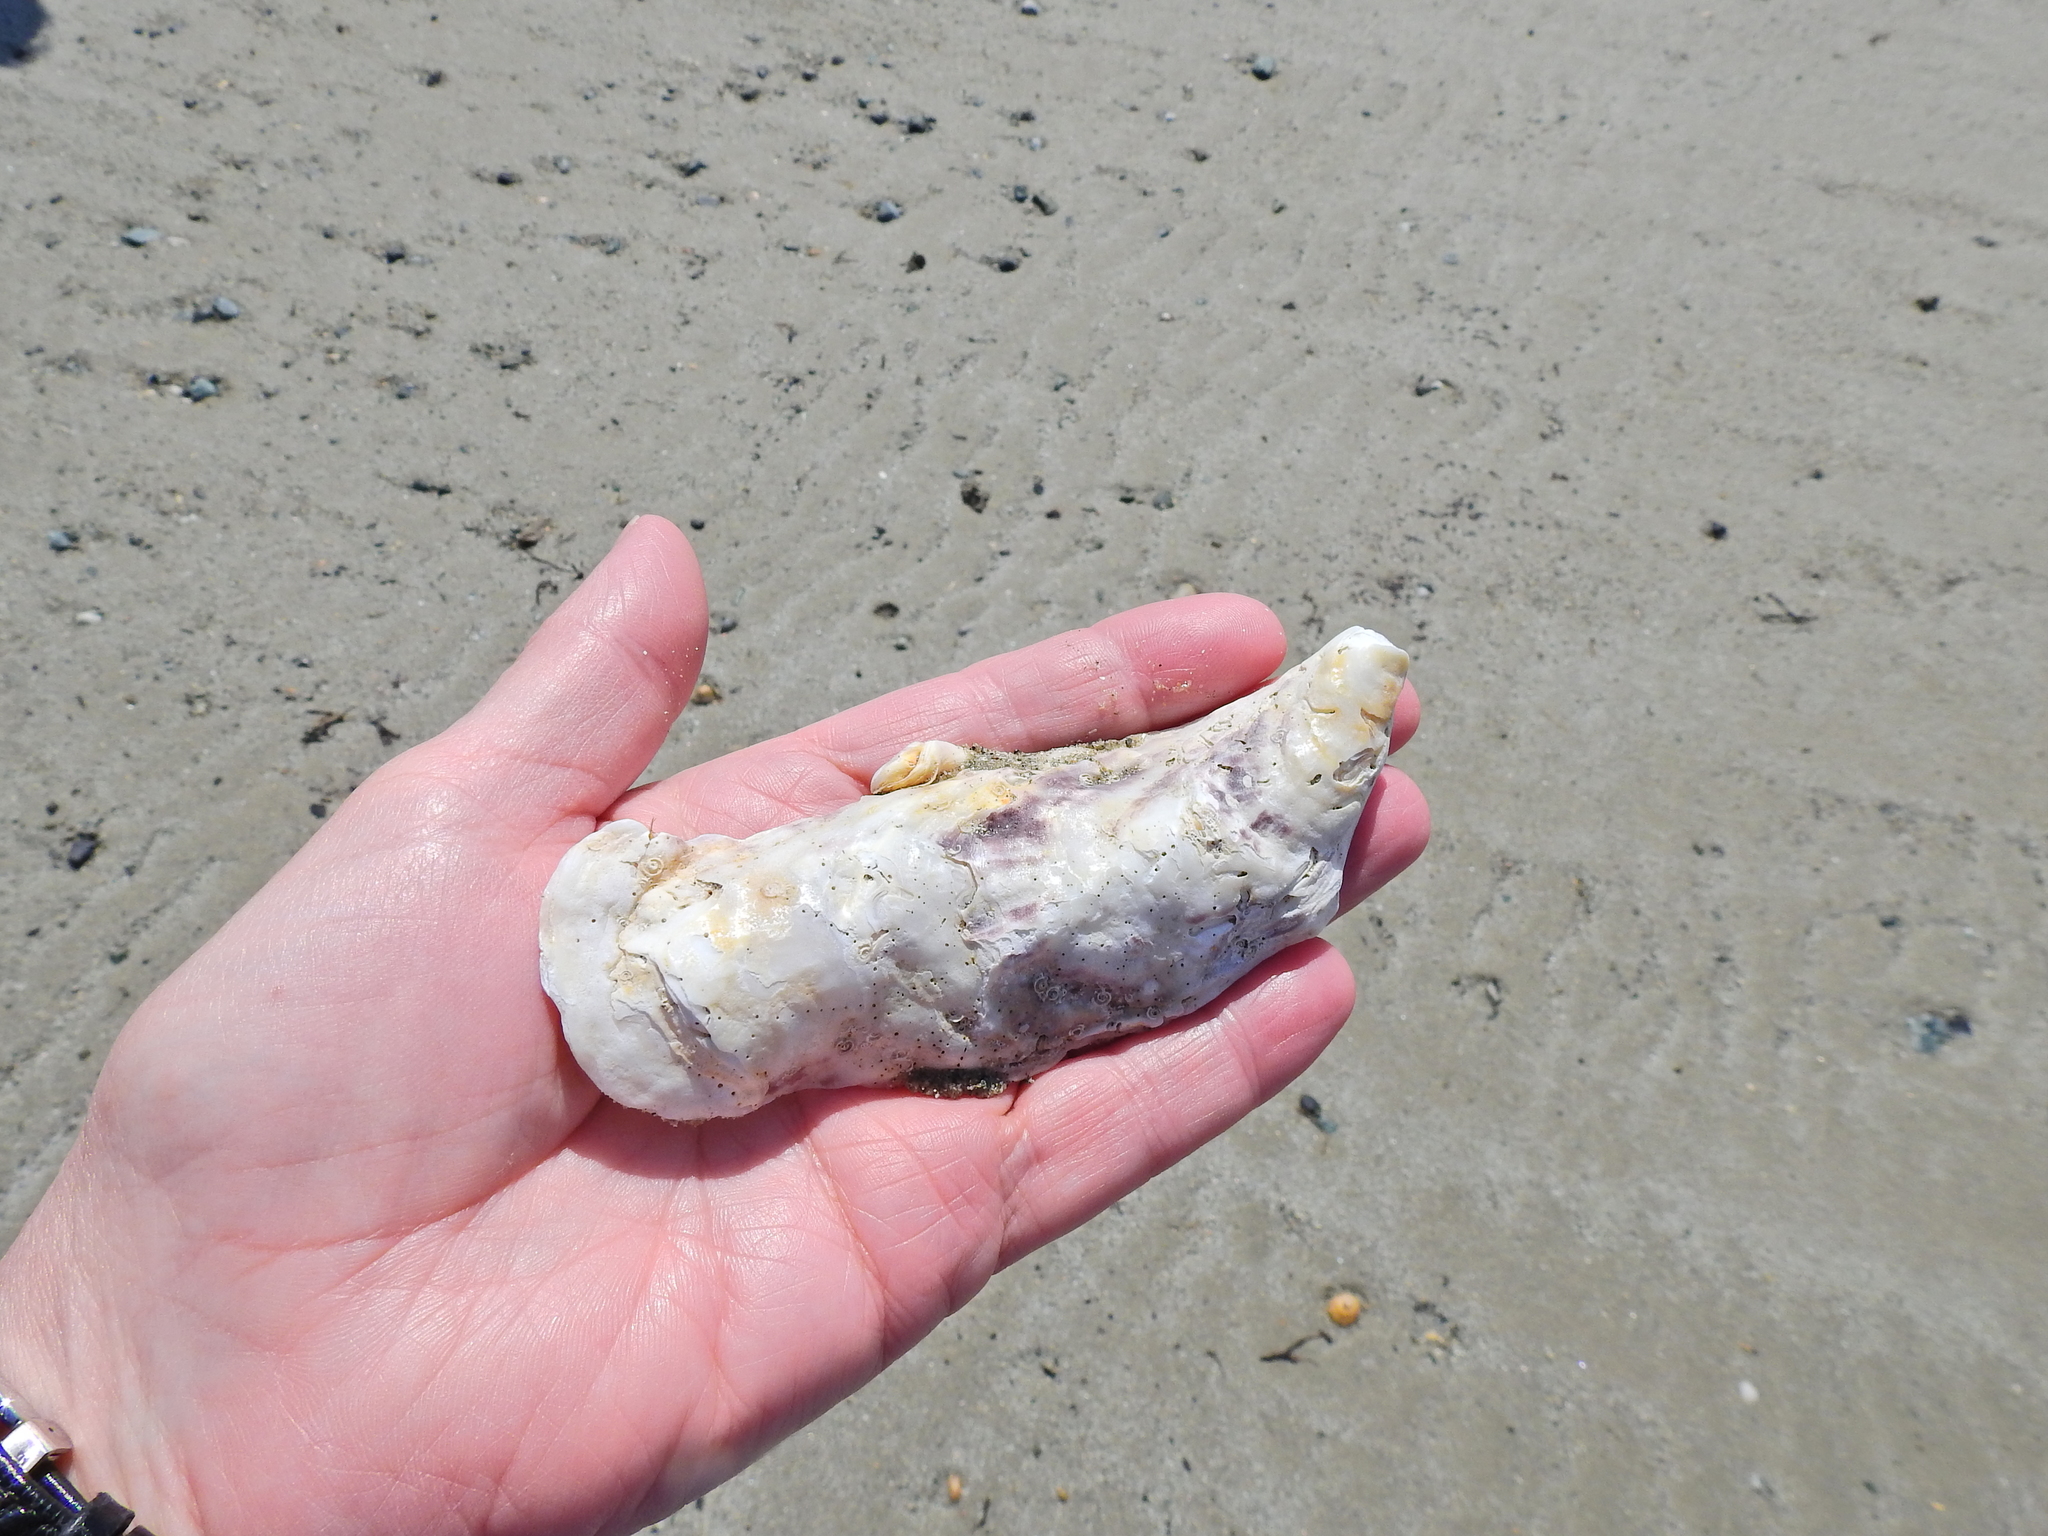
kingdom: Animalia
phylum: Mollusca
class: Bivalvia
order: Ostreida
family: Ostreidae
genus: Magallana
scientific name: Magallana gigas
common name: Pacific oyster
